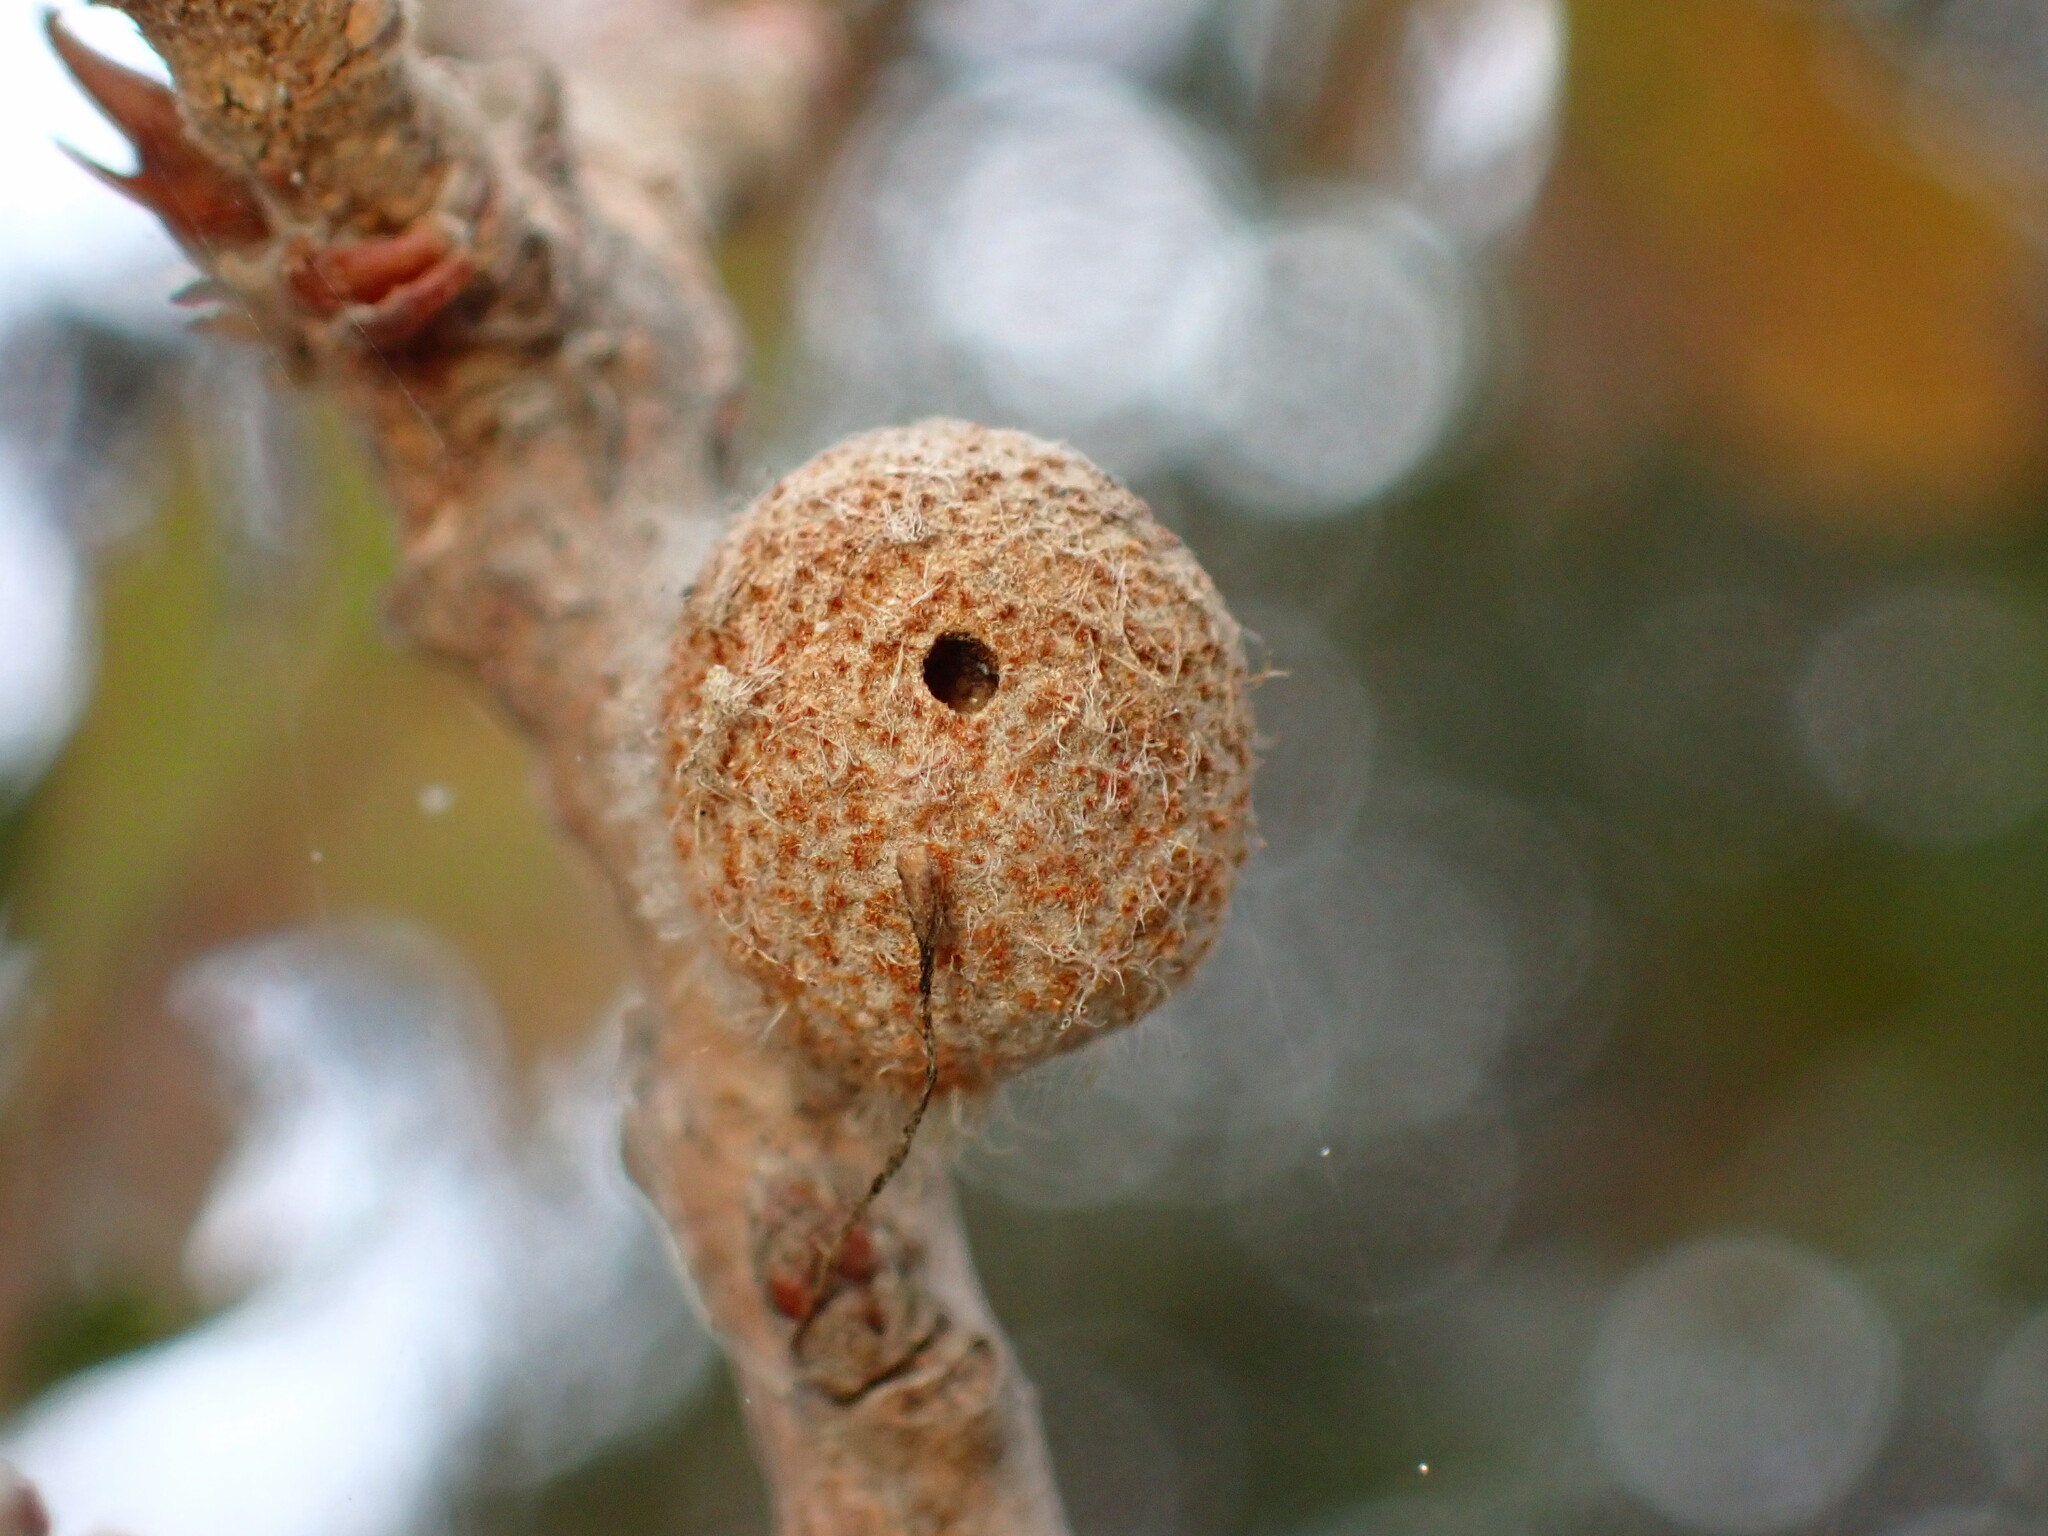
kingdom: Animalia
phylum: Arthropoda
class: Insecta
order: Hymenoptera
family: Cynipidae
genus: Burnettweldia
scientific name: Burnettweldia
